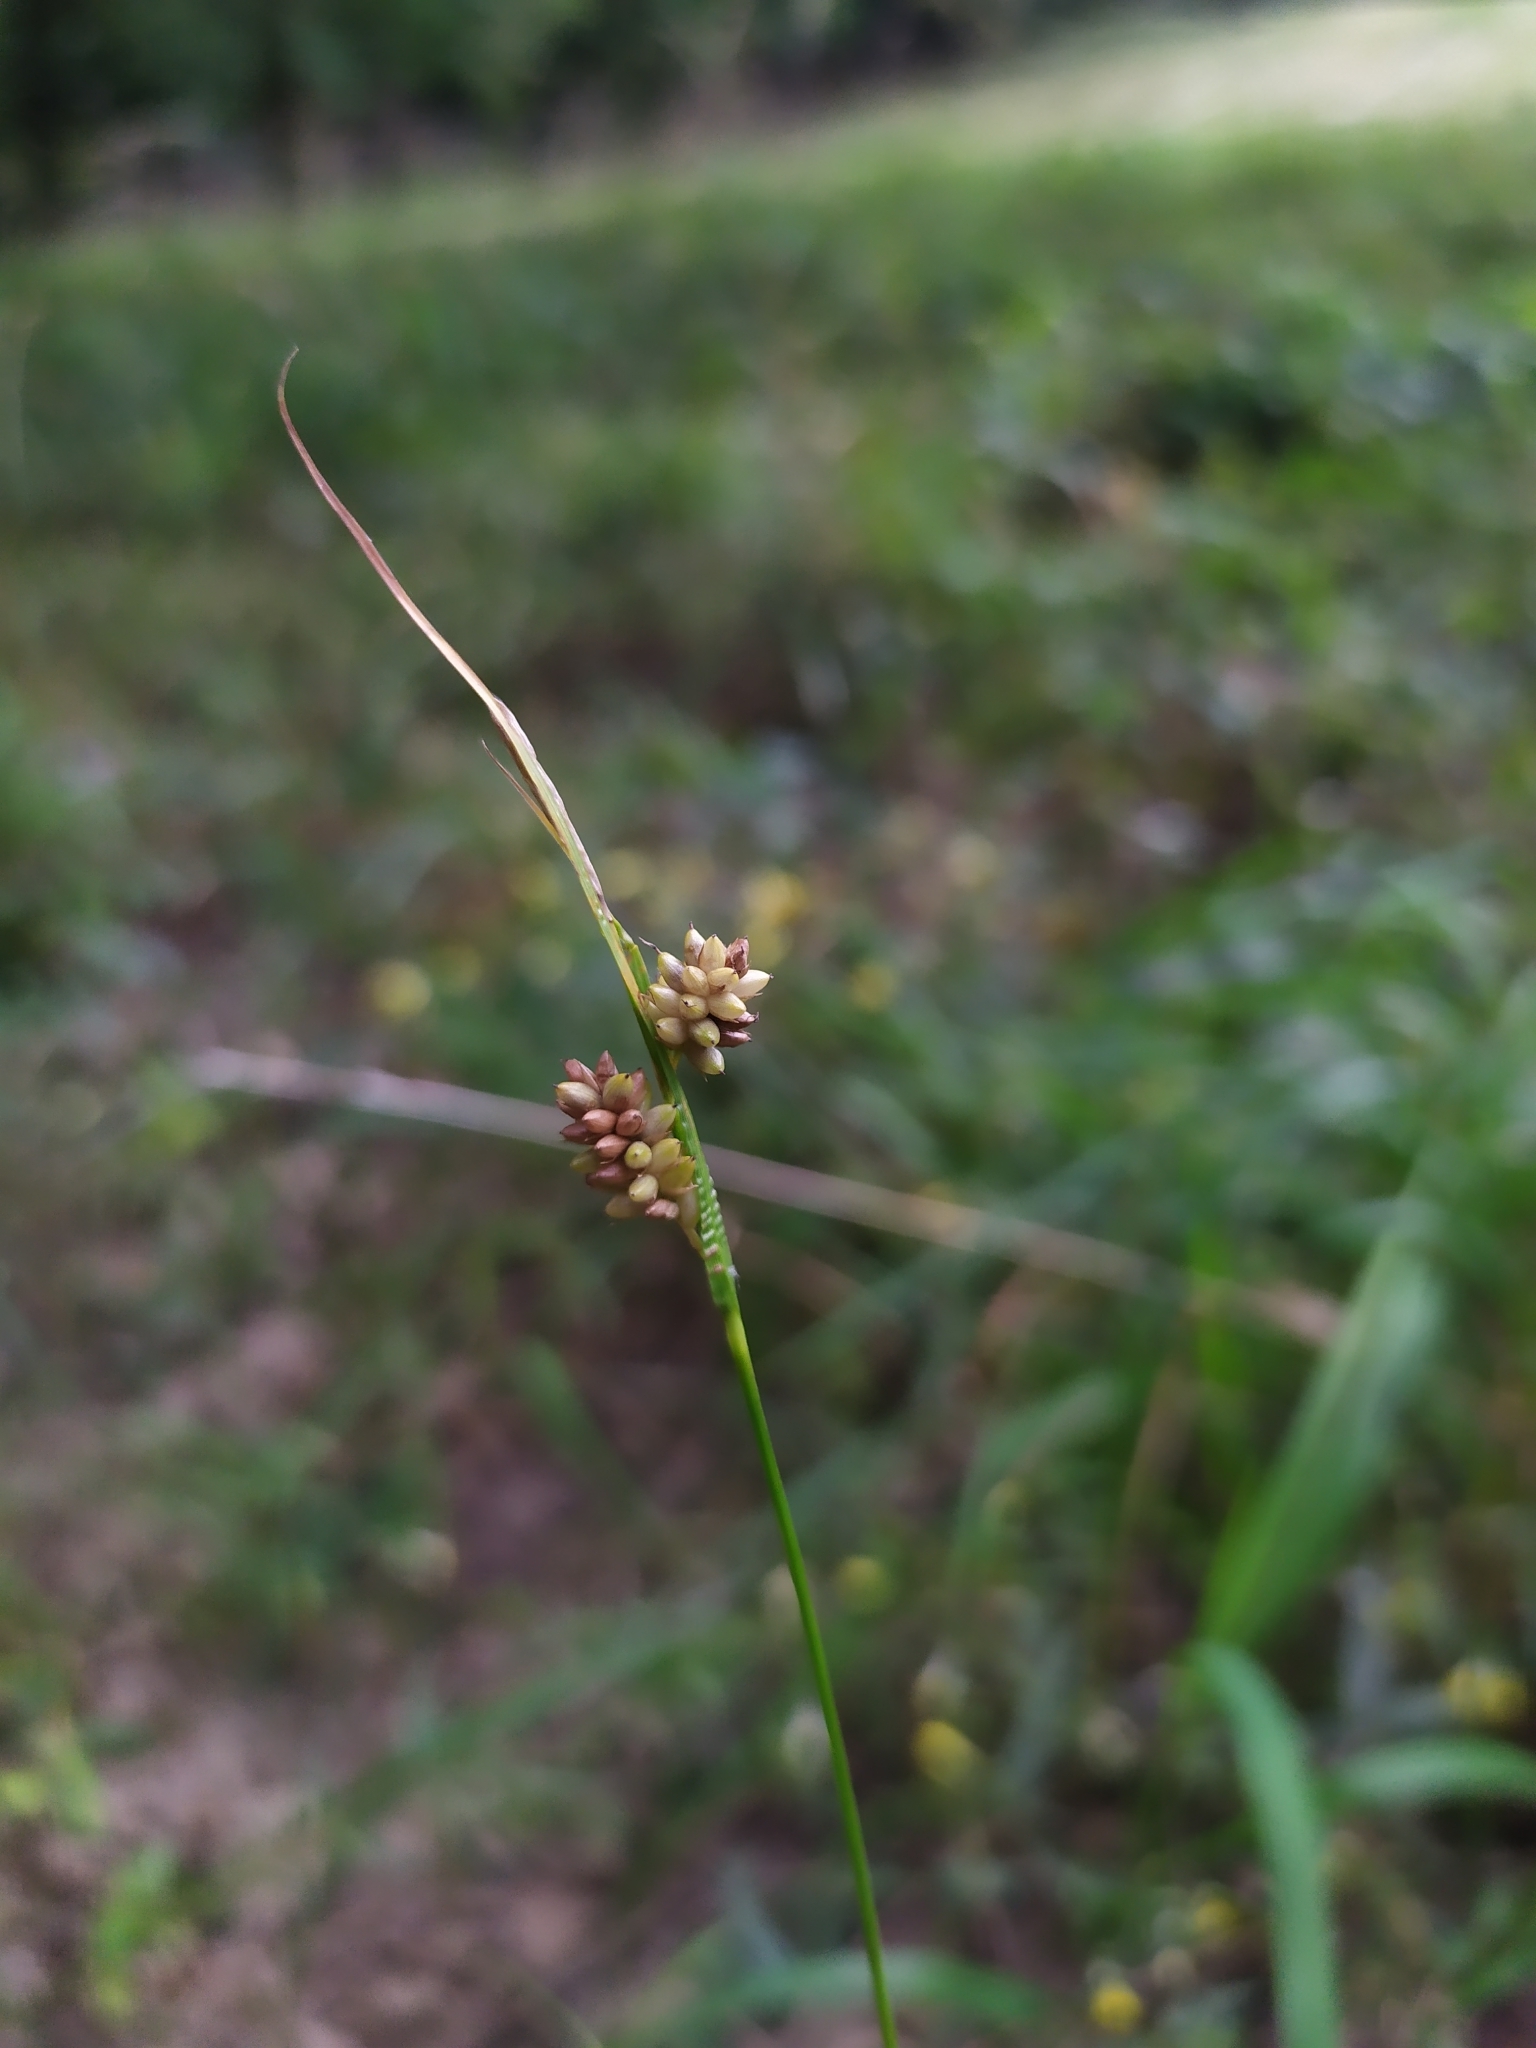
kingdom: Plantae
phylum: Tracheophyta
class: Liliopsida
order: Poales
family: Cyperaceae
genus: Carex
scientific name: Carex pallescens
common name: Pale sedge
